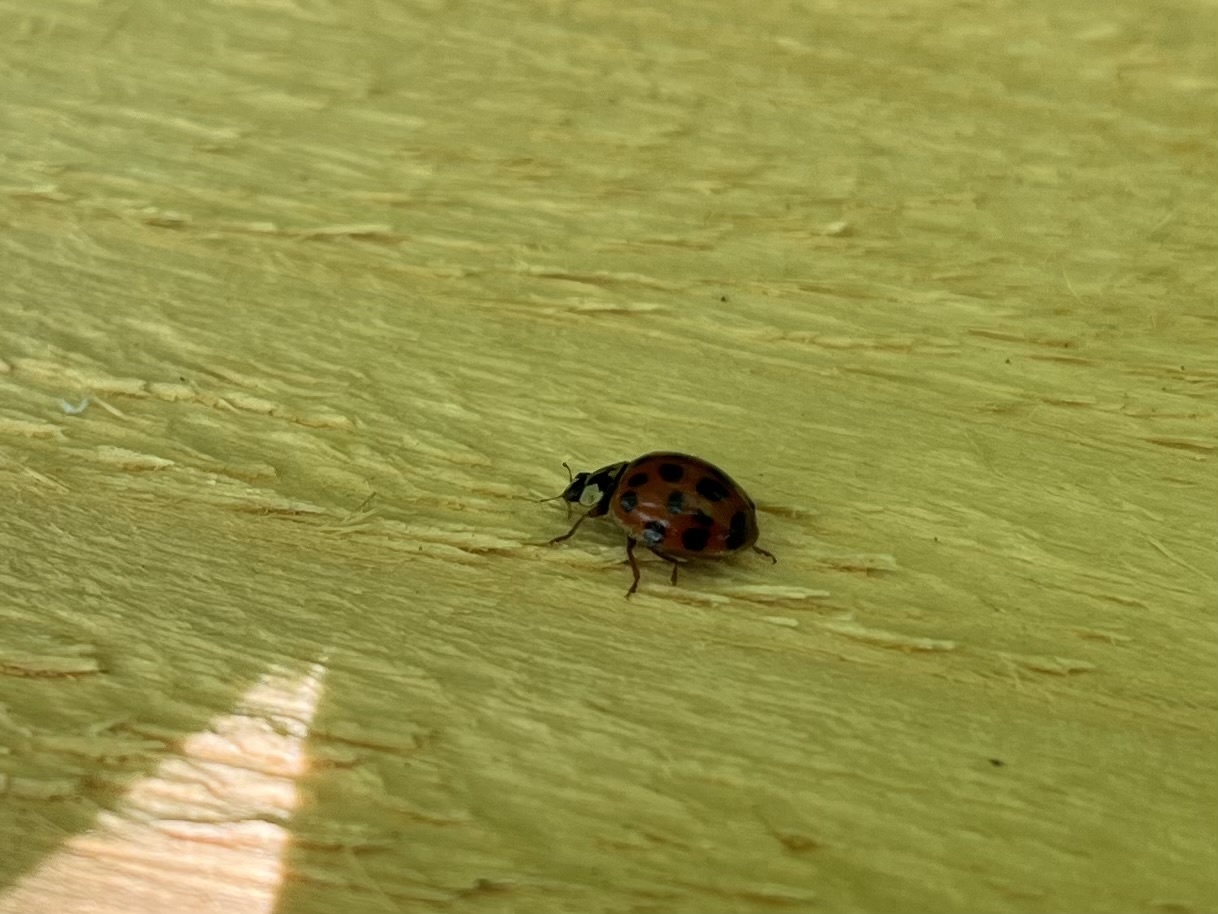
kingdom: Animalia
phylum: Arthropoda
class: Insecta
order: Coleoptera
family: Coccinellidae
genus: Harmonia
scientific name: Harmonia axyridis
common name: Harlequin ladybird
